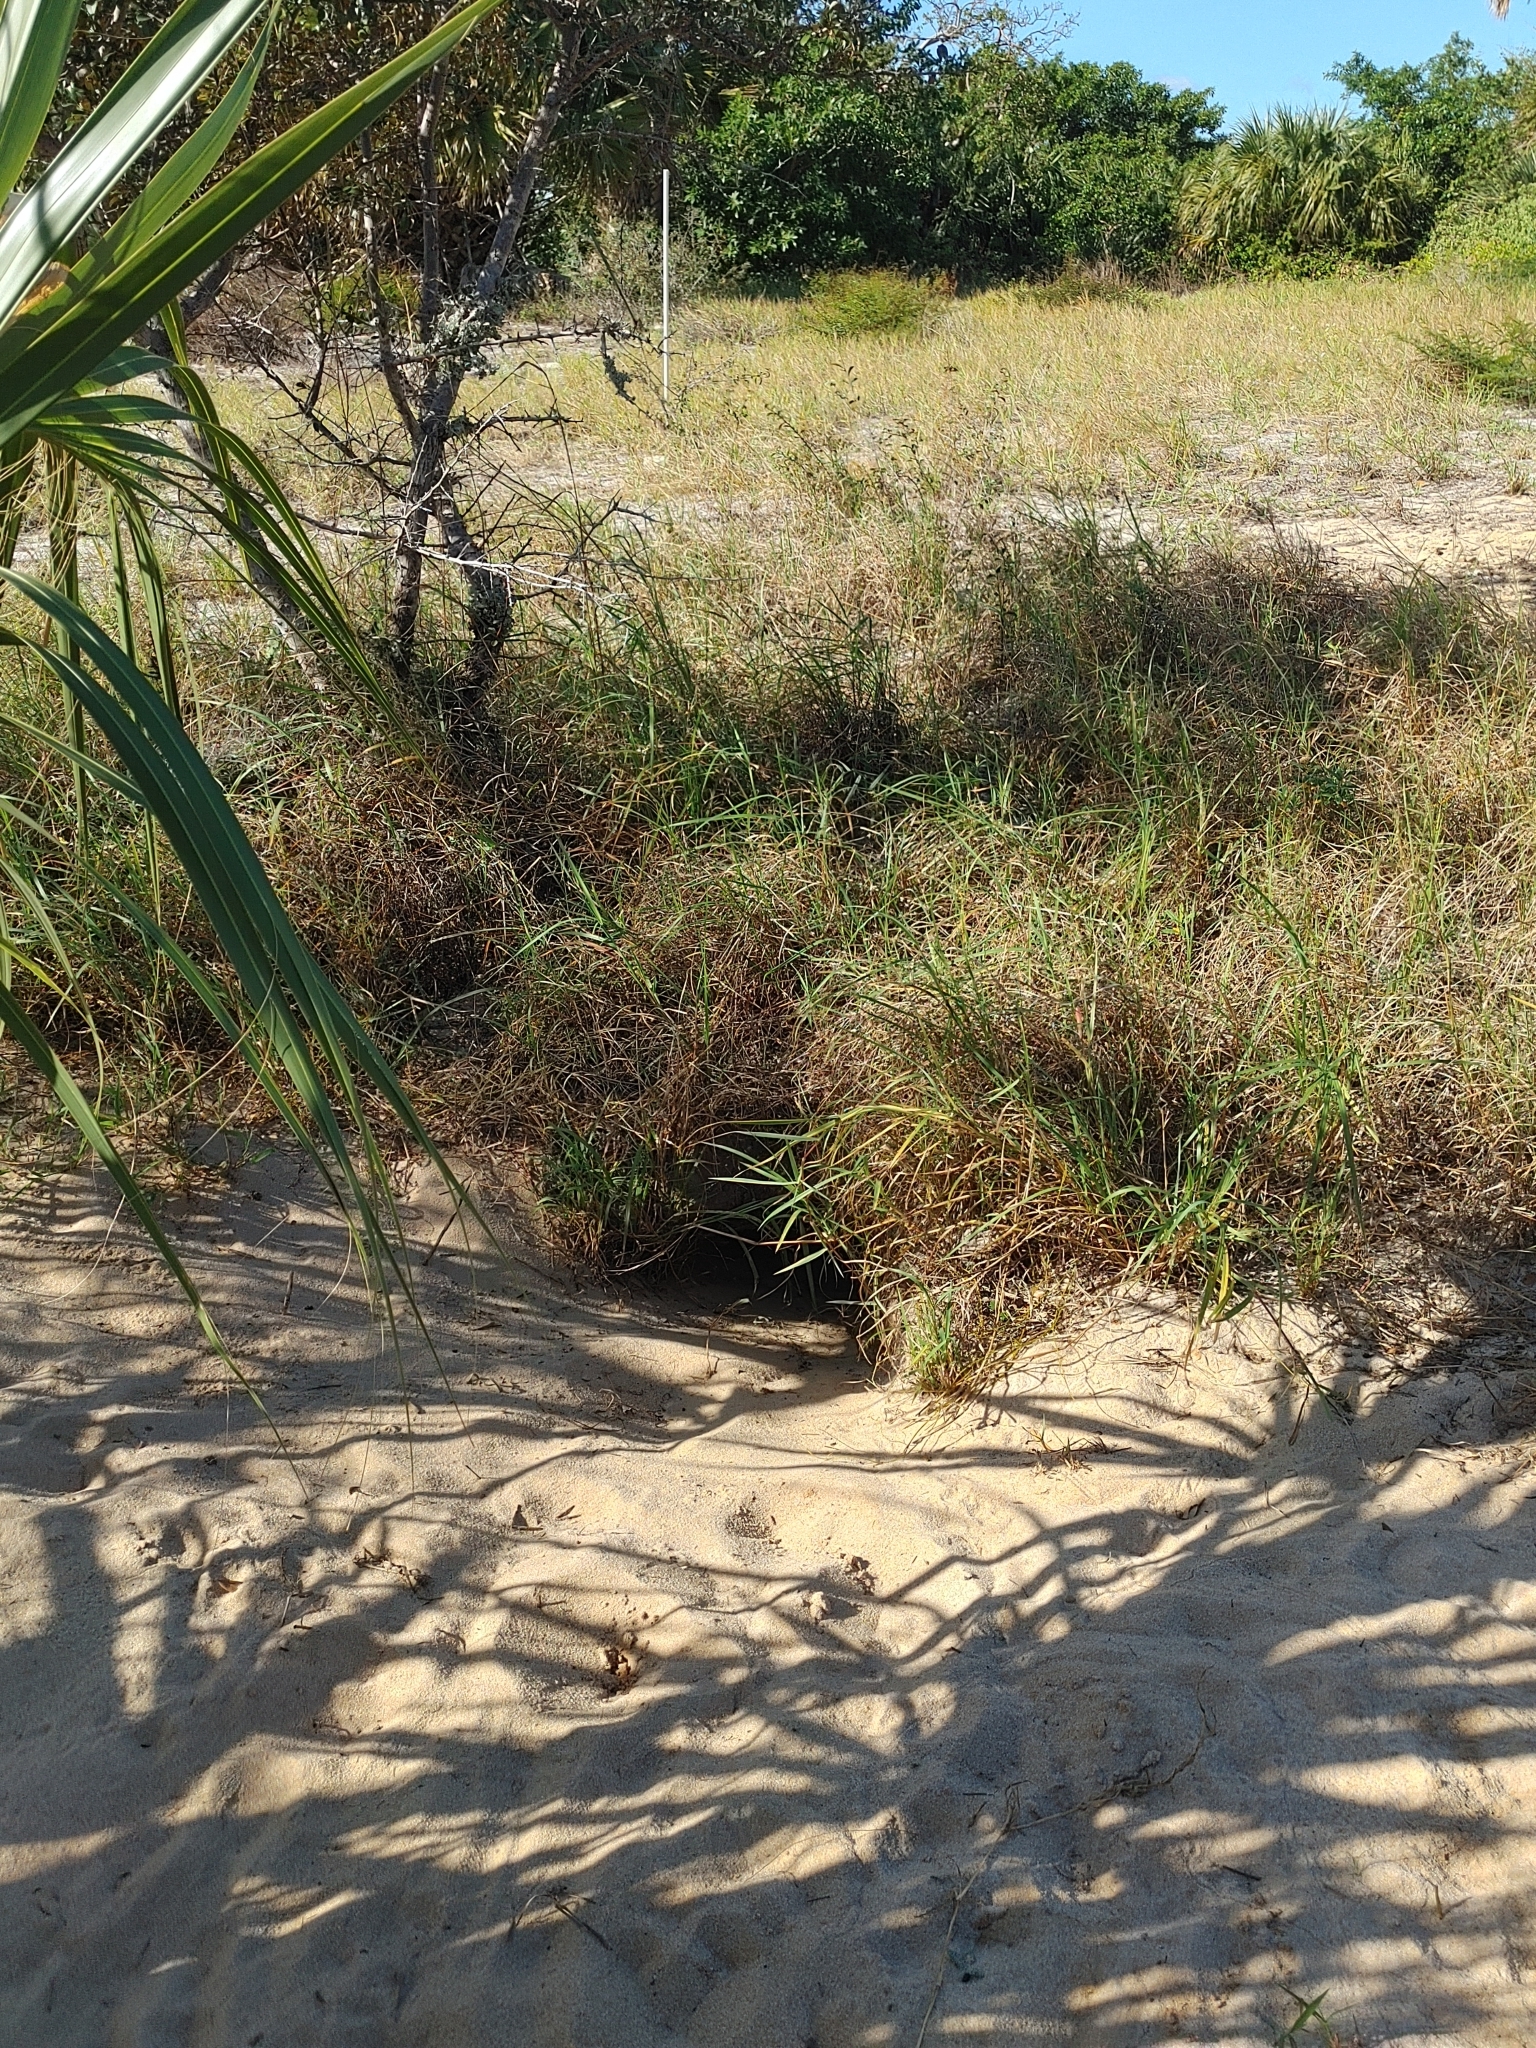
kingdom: Animalia
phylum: Chordata
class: Testudines
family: Testudinidae
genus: Gopherus
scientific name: Gopherus polyphemus
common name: Florida gopher tortoise
